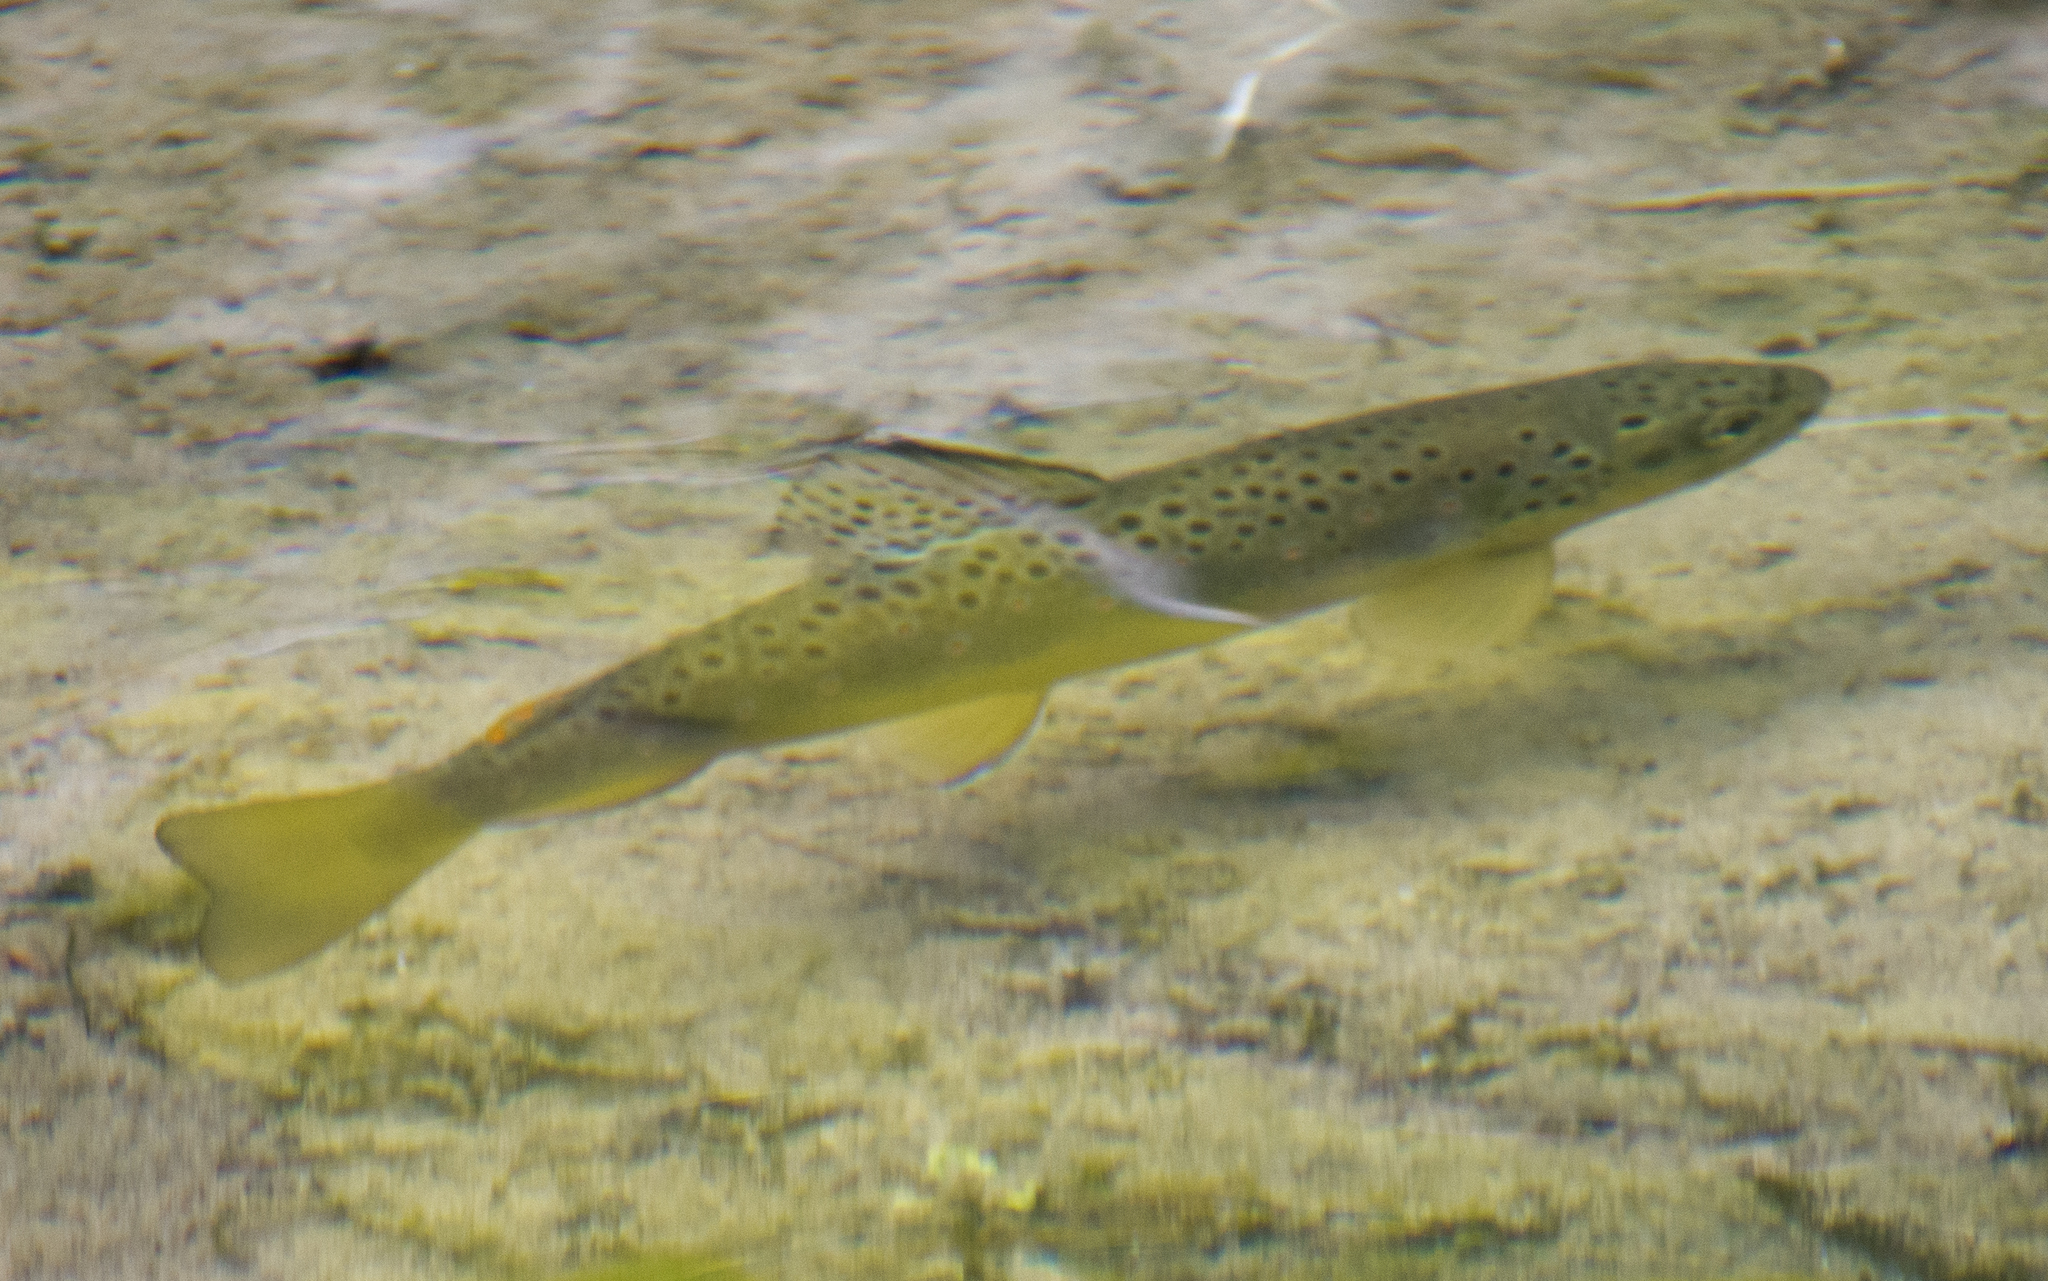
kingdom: Animalia
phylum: Chordata
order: Salmoniformes
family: Salmonidae
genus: Salmo
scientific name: Salmo trutta
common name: Brown trout
